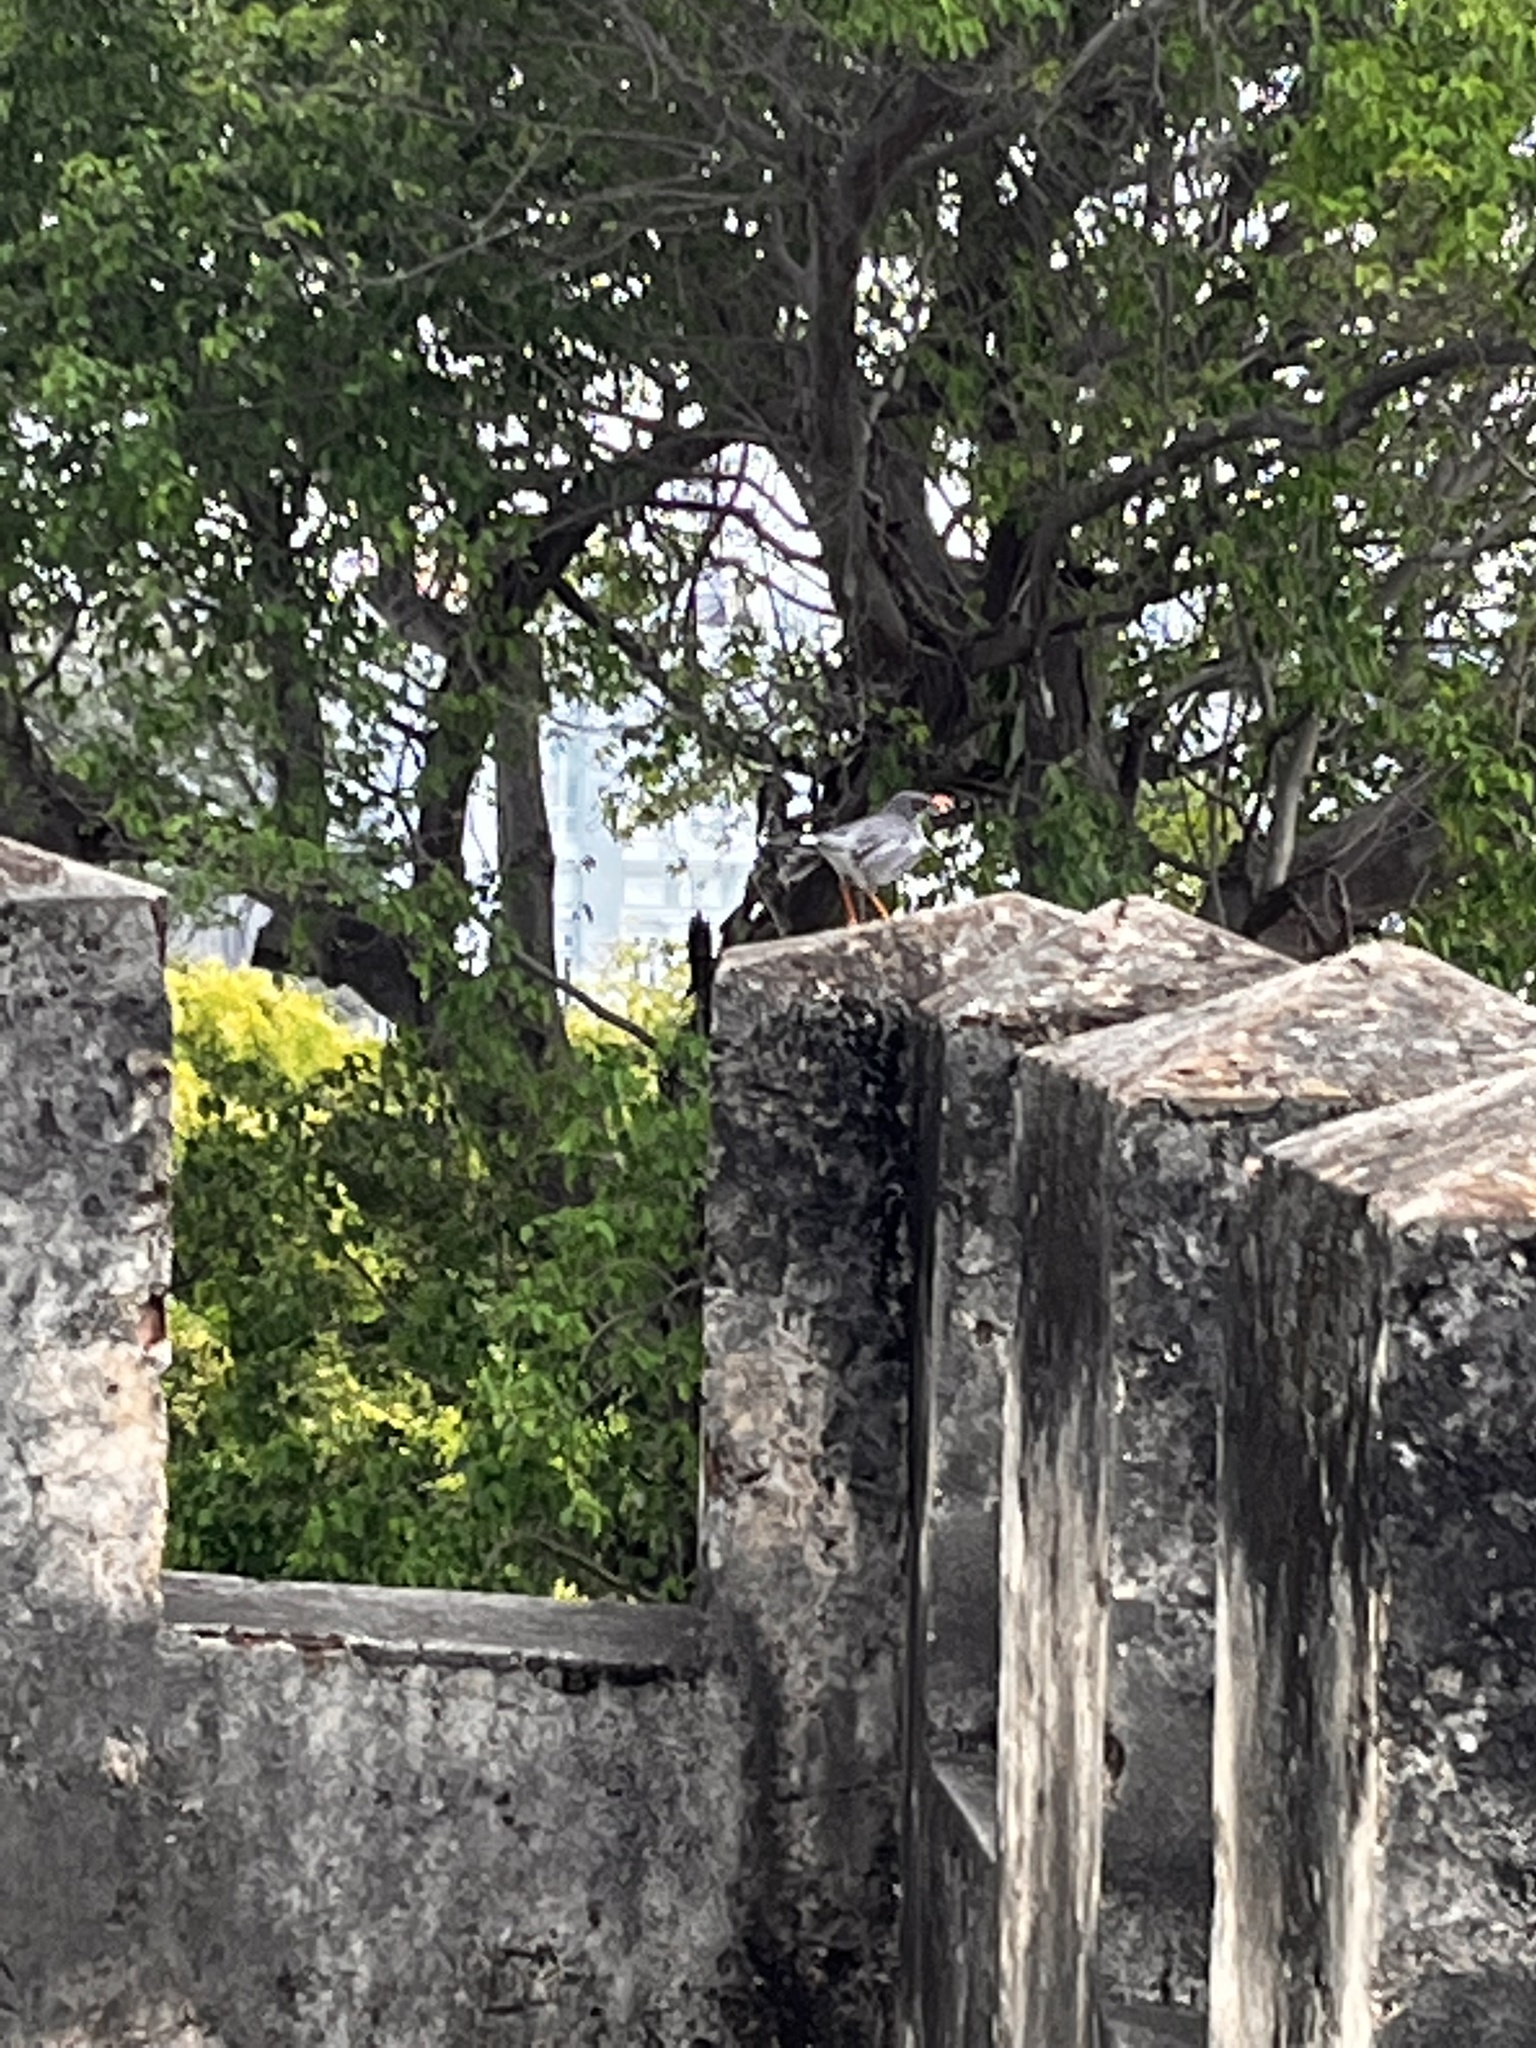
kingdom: Animalia
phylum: Chordata
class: Aves
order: Passeriformes
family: Turdidae
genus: Turdus
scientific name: Turdus plumbeus
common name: Red-legged thrush
